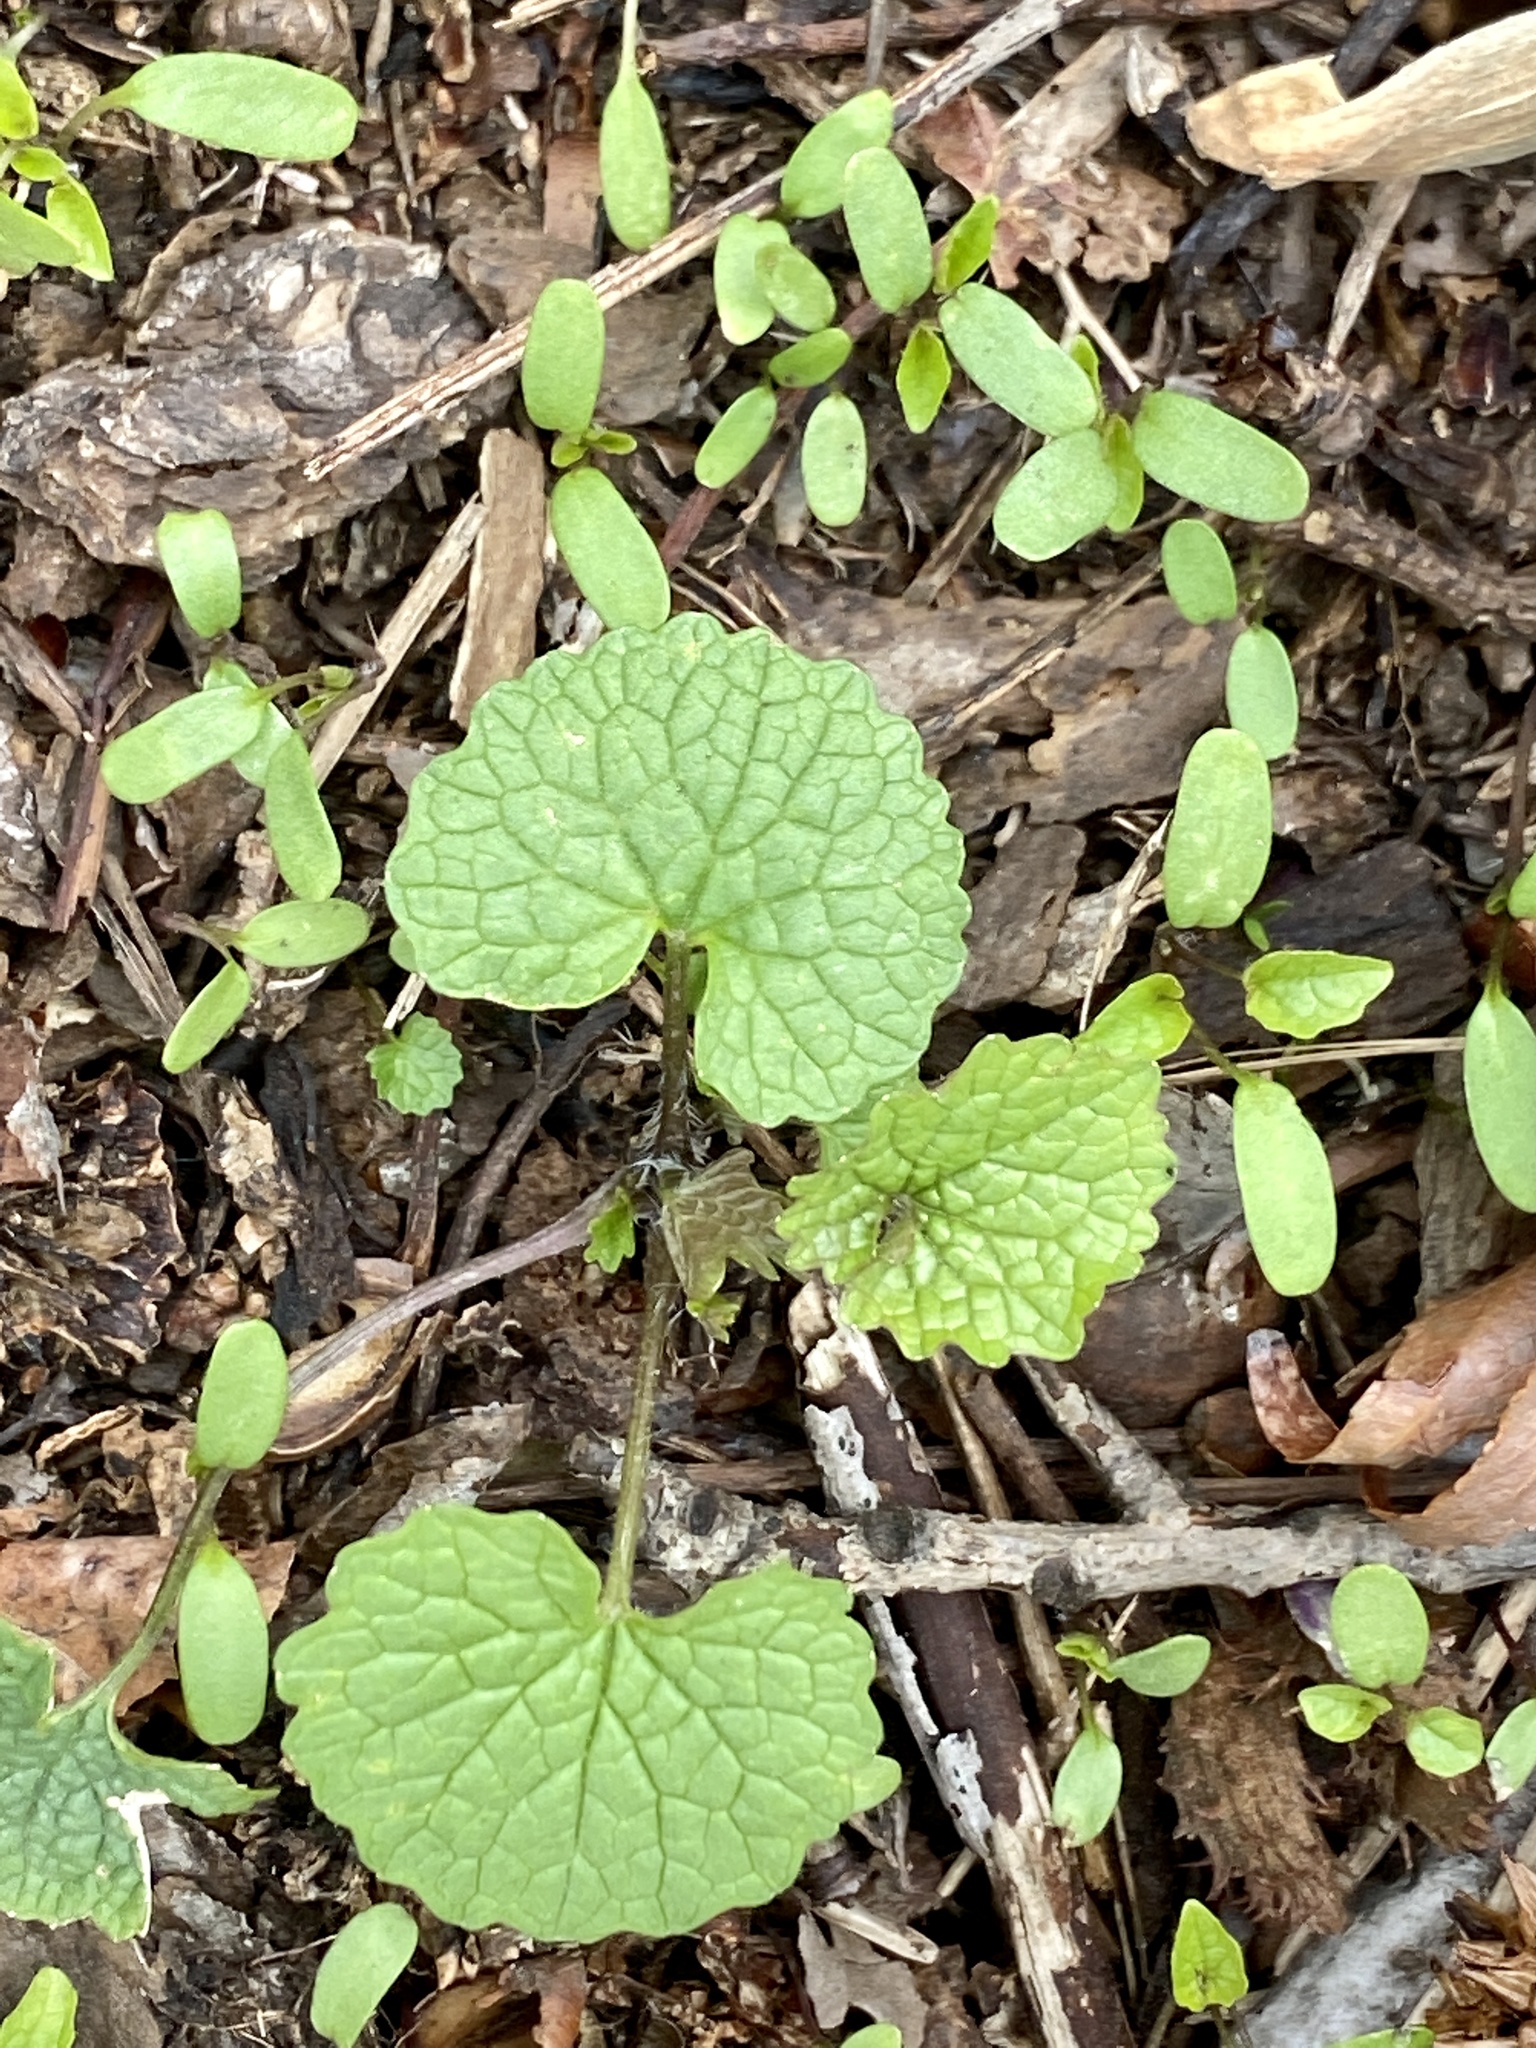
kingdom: Plantae
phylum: Tracheophyta
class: Magnoliopsida
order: Brassicales
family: Brassicaceae
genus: Alliaria
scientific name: Alliaria petiolata
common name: Garlic mustard
